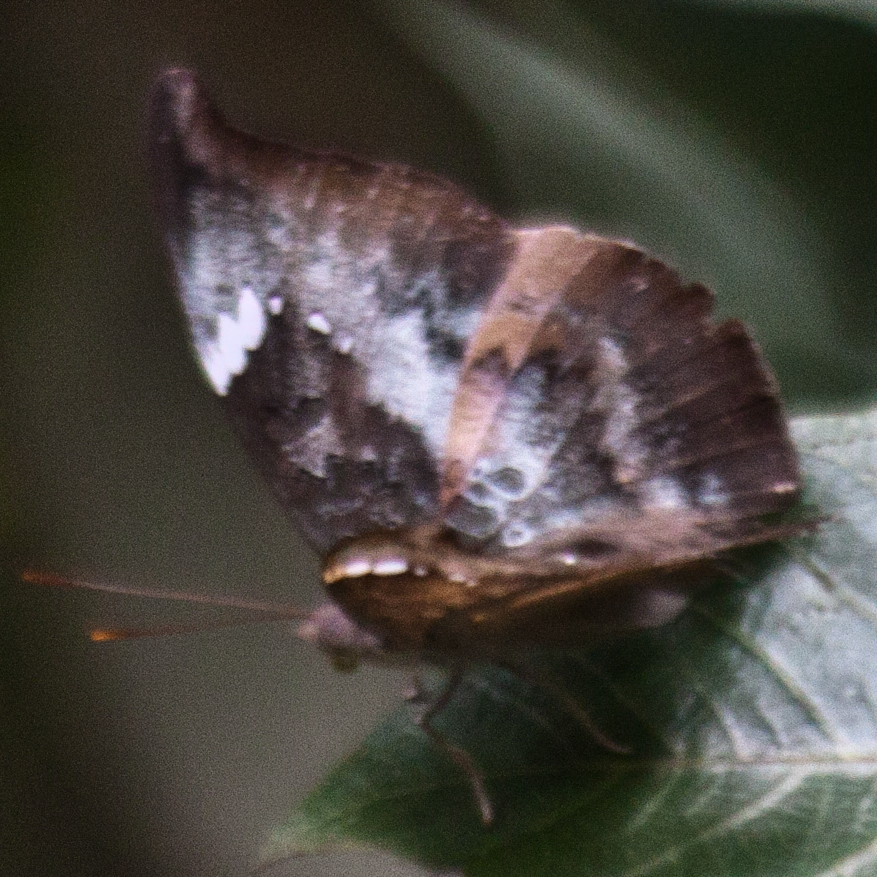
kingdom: Animalia
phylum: Arthropoda
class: Insecta
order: Lepidoptera
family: Nymphalidae
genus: Euthalia
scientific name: Euthalia anosia
